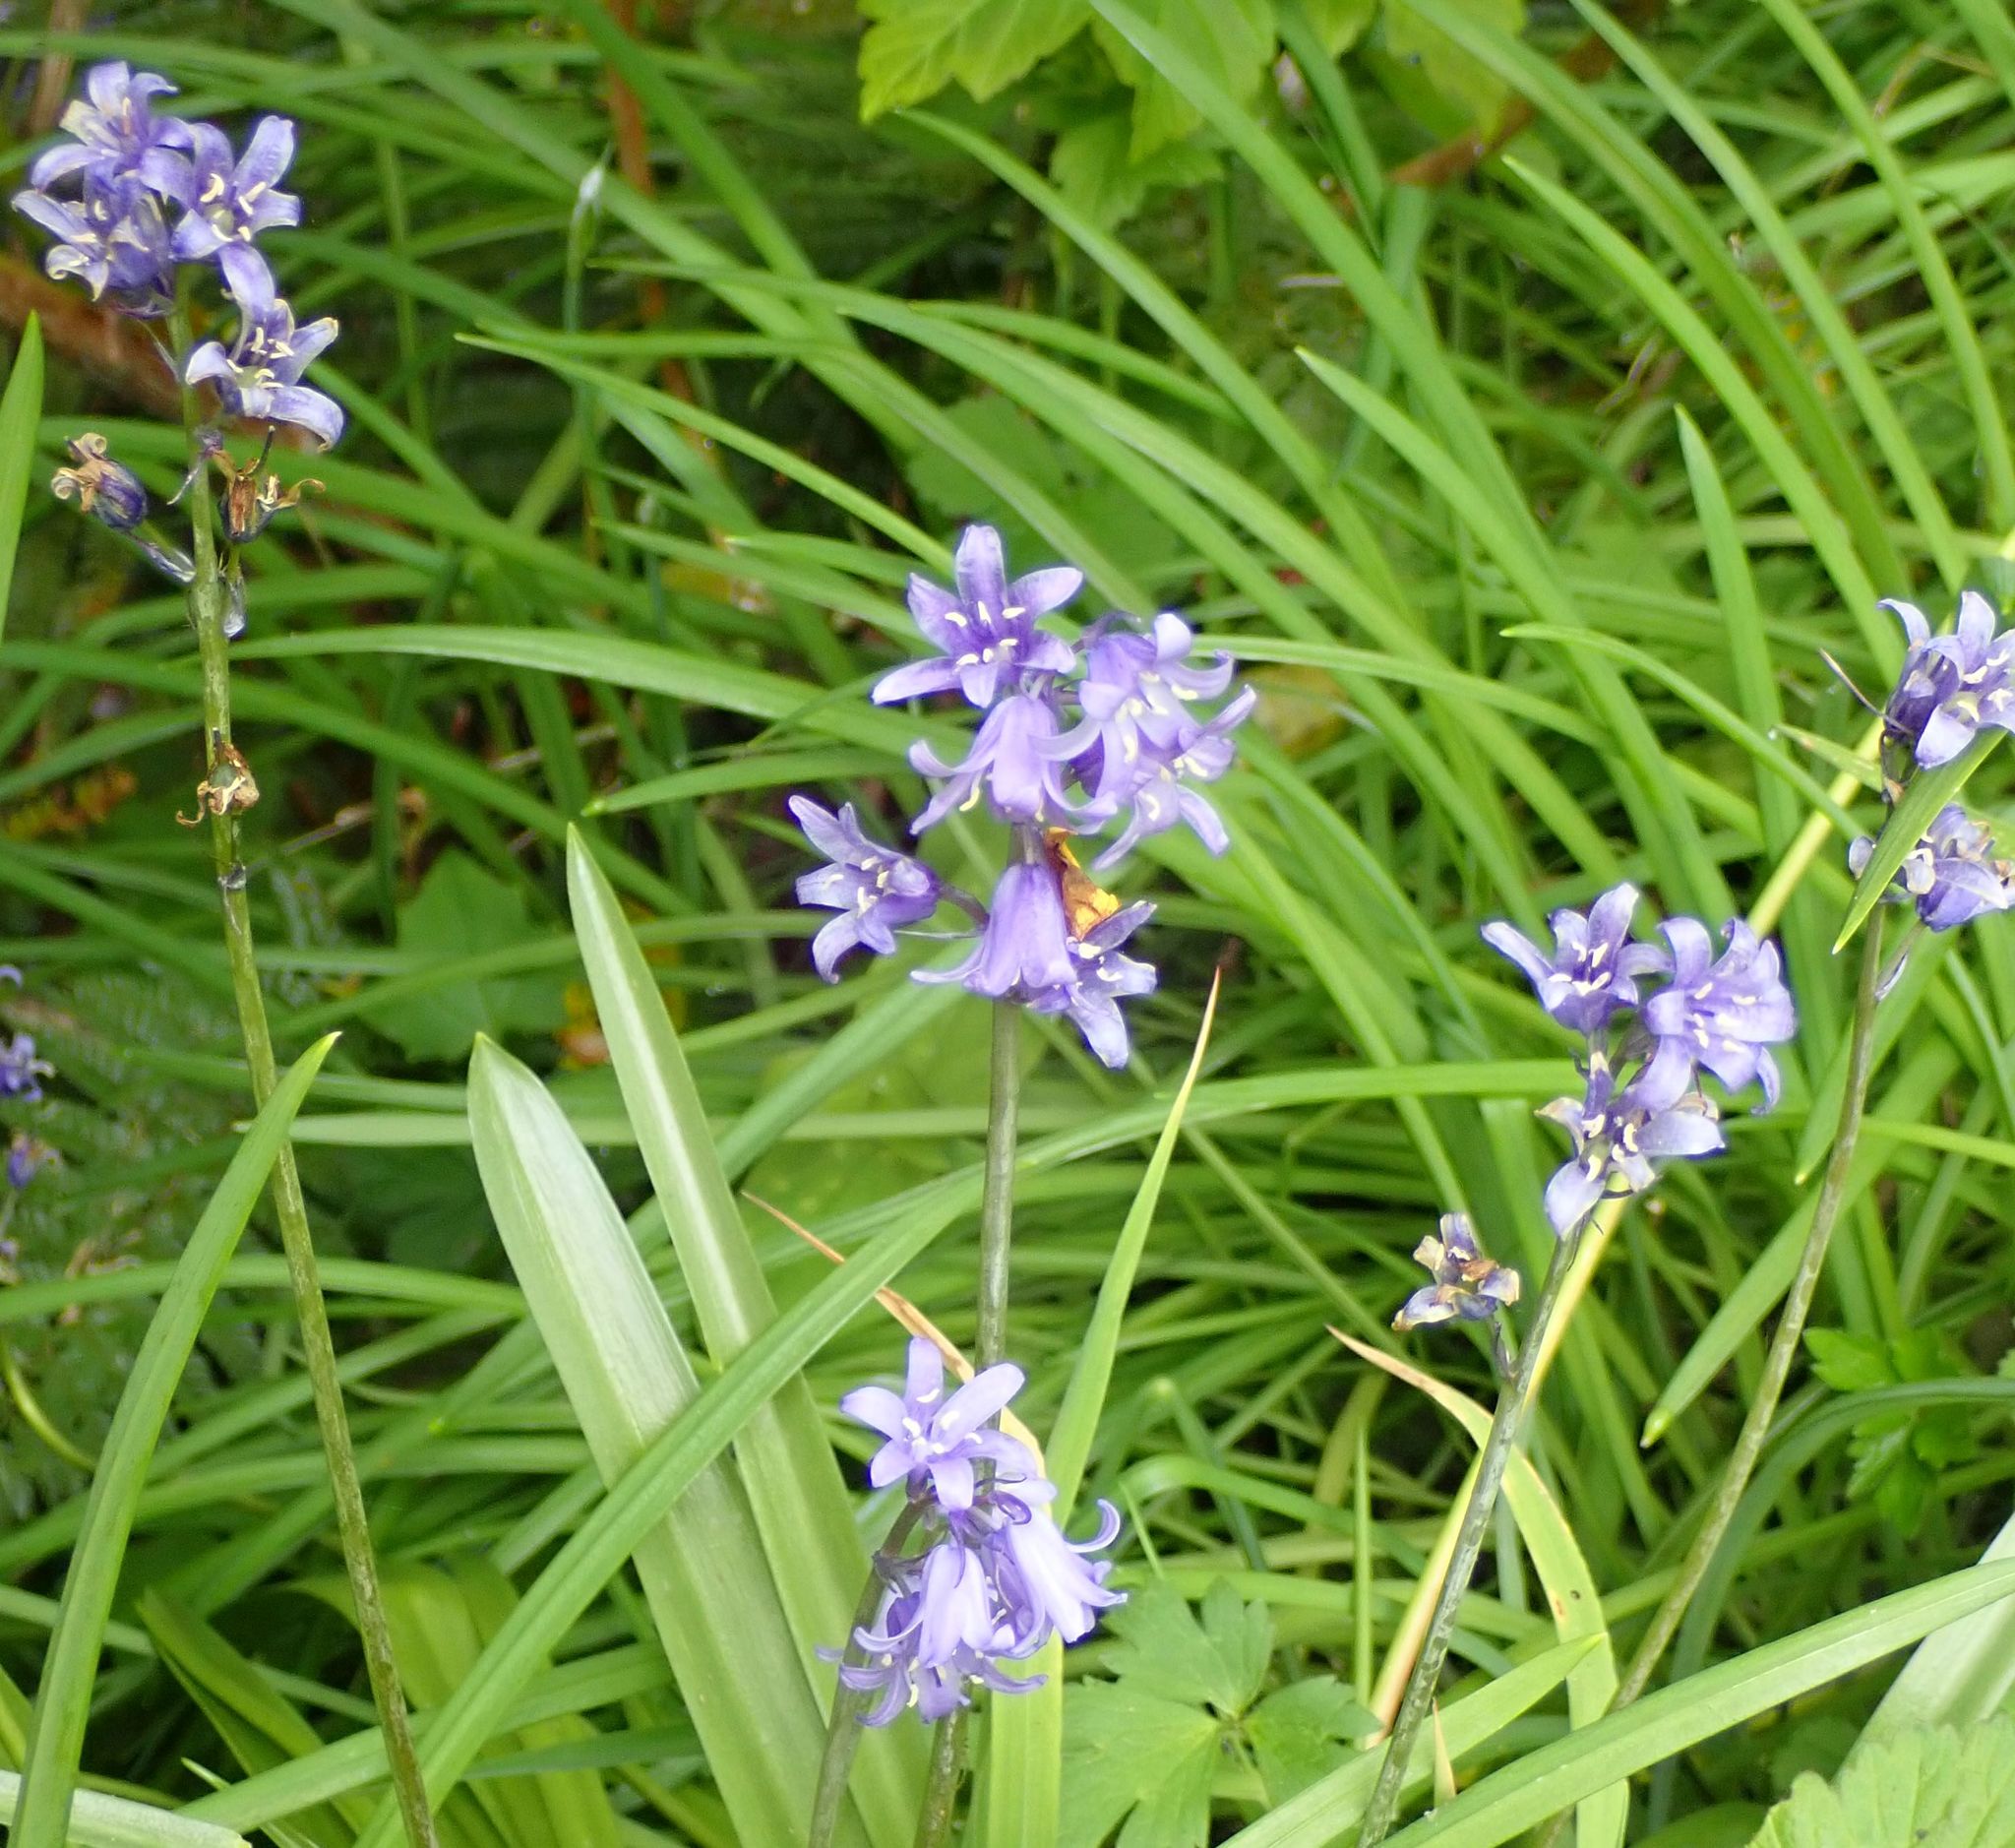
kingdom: Plantae
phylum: Tracheophyta
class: Liliopsida
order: Asparagales
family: Asparagaceae
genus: Hyacinthoides
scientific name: Hyacinthoides massartiana
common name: Hyacinthoides
